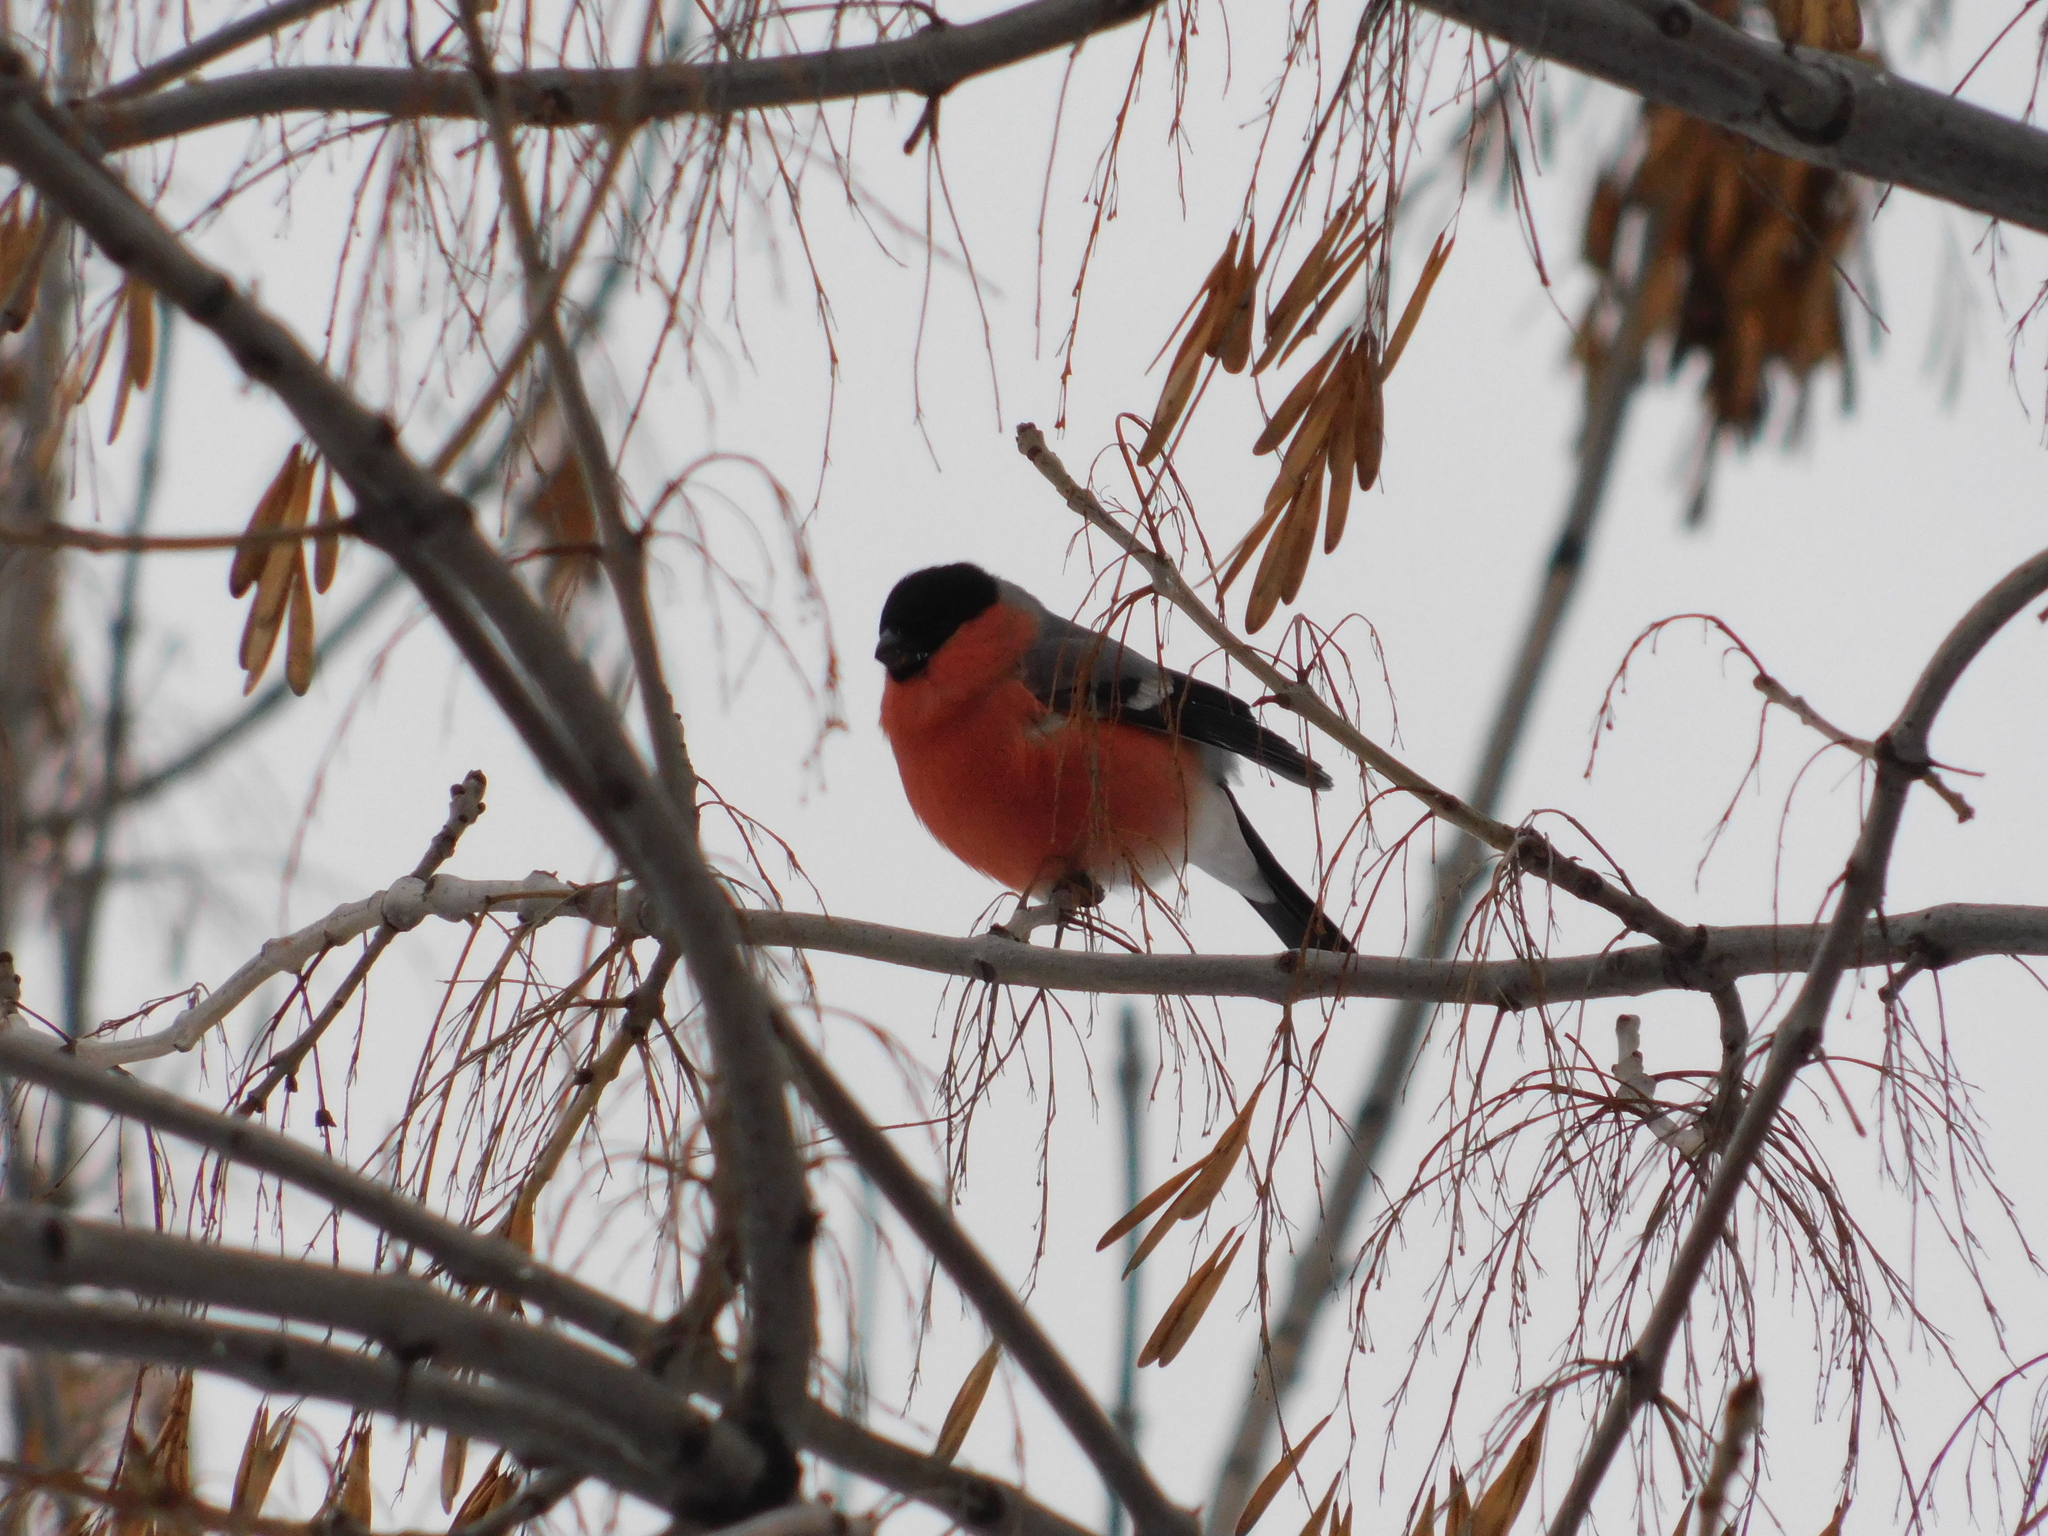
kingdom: Animalia
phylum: Chordata
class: Aves
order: Passeriformes
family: Fringillidae
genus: Pyrrhula
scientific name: Pyrrhula pyrrhula
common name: Eurasian bullfinch
